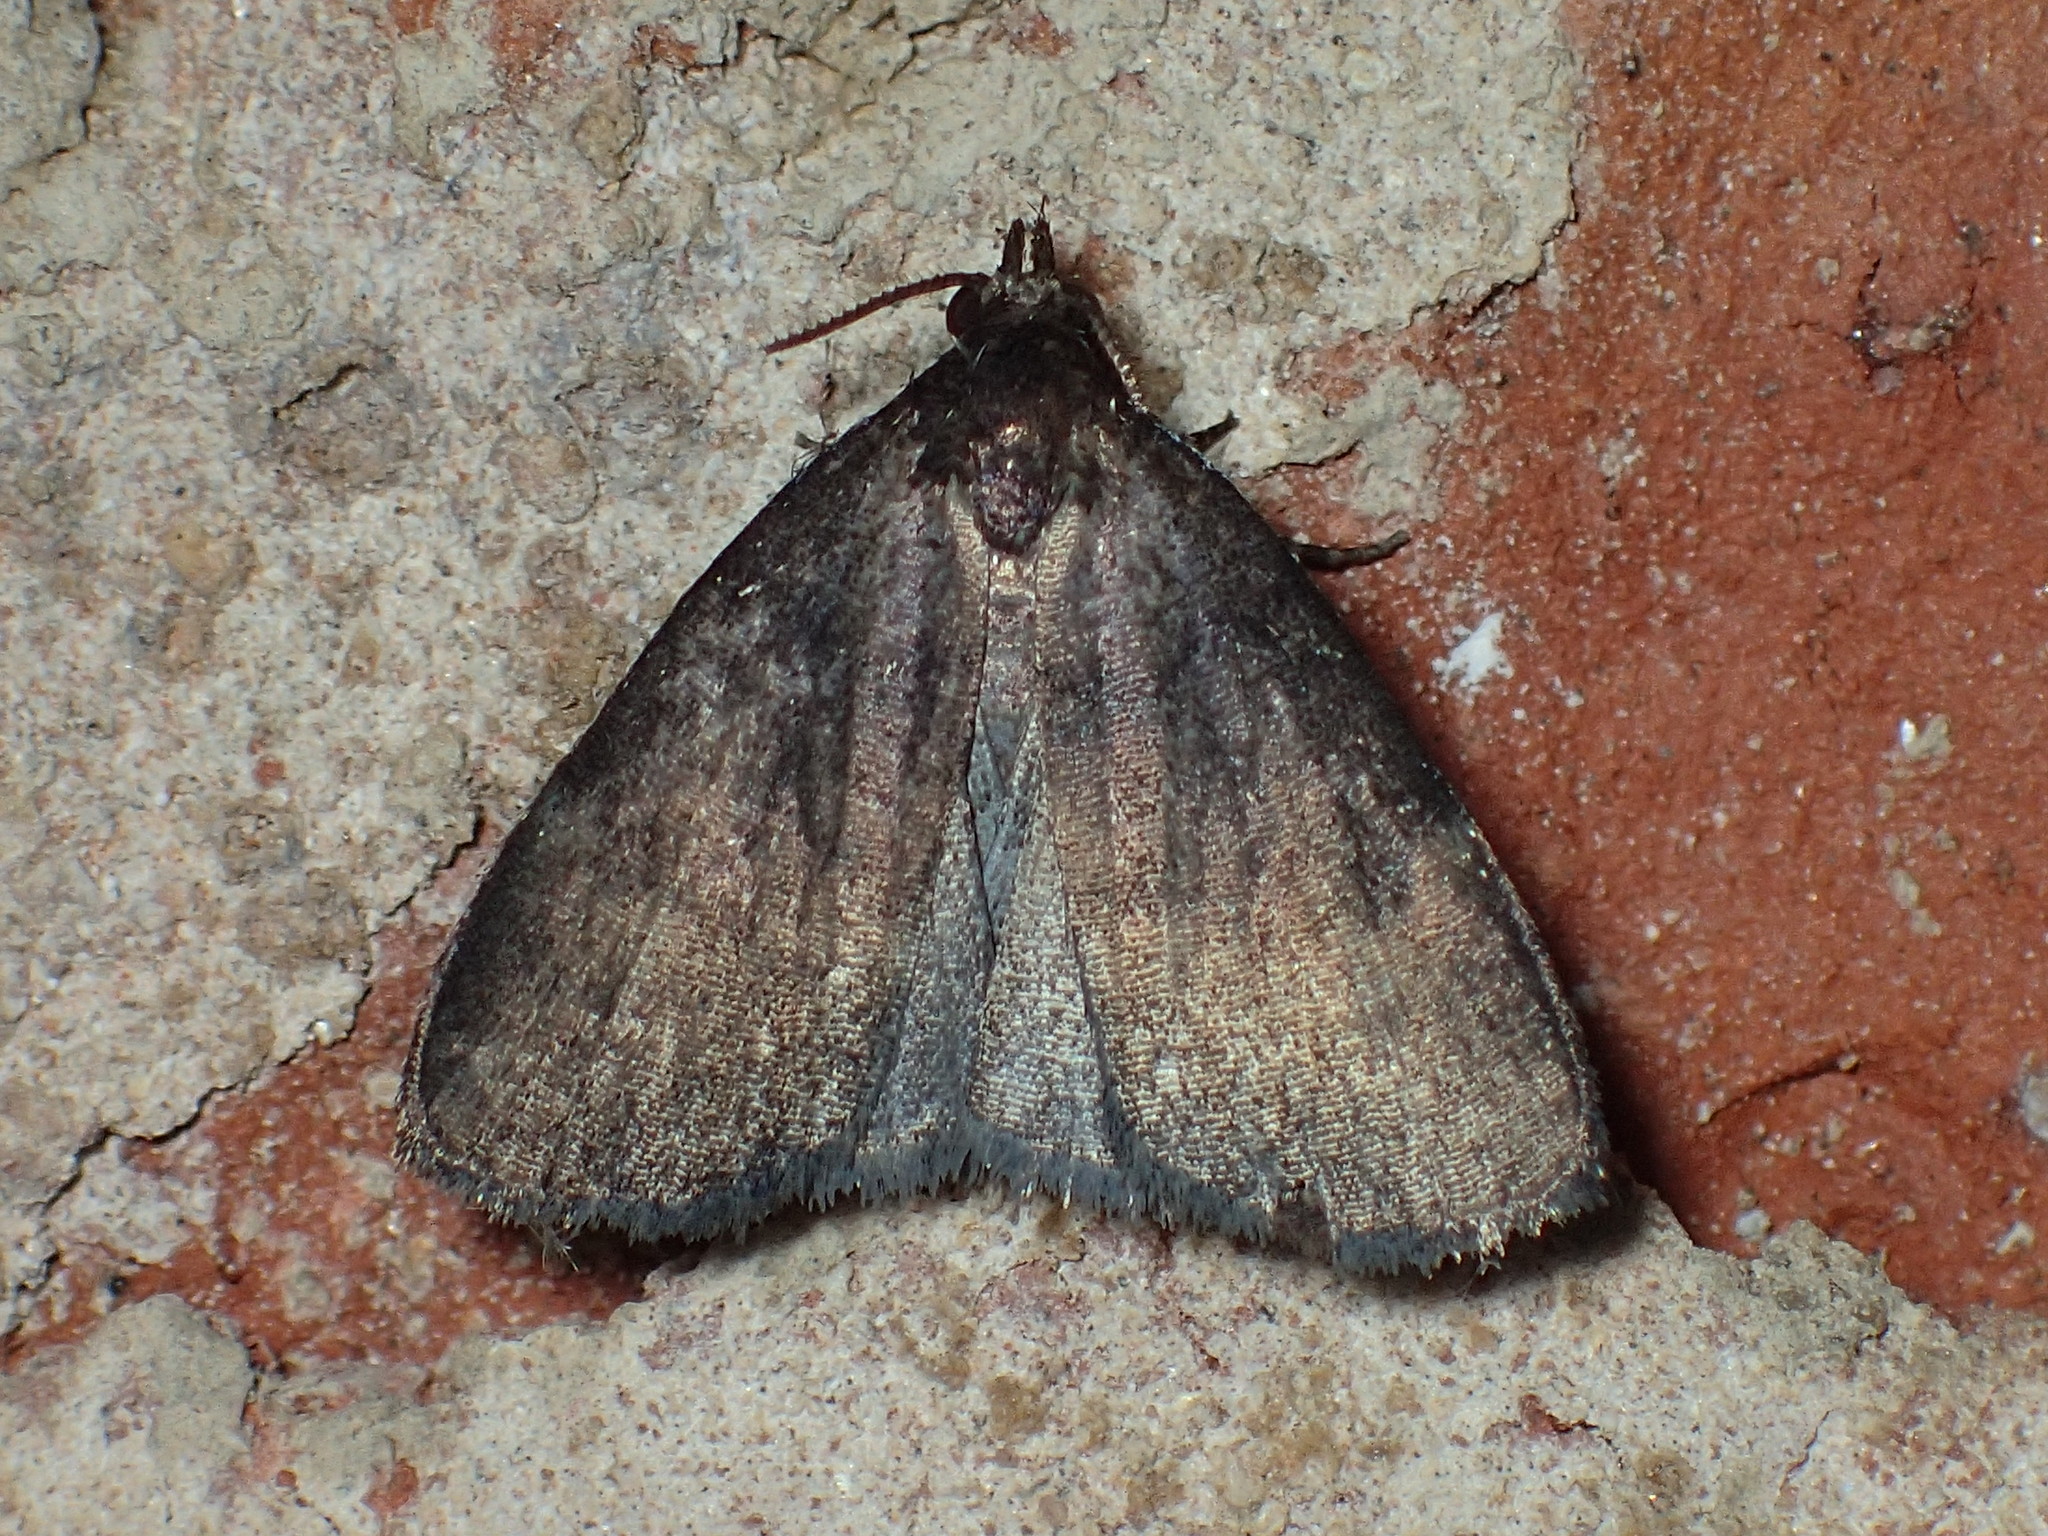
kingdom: Animalia
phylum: Arthropoda
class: Insecta
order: Lepidoptera
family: Erebidae
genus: Idia
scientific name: Idia rotundalis
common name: Rotund idia moth
